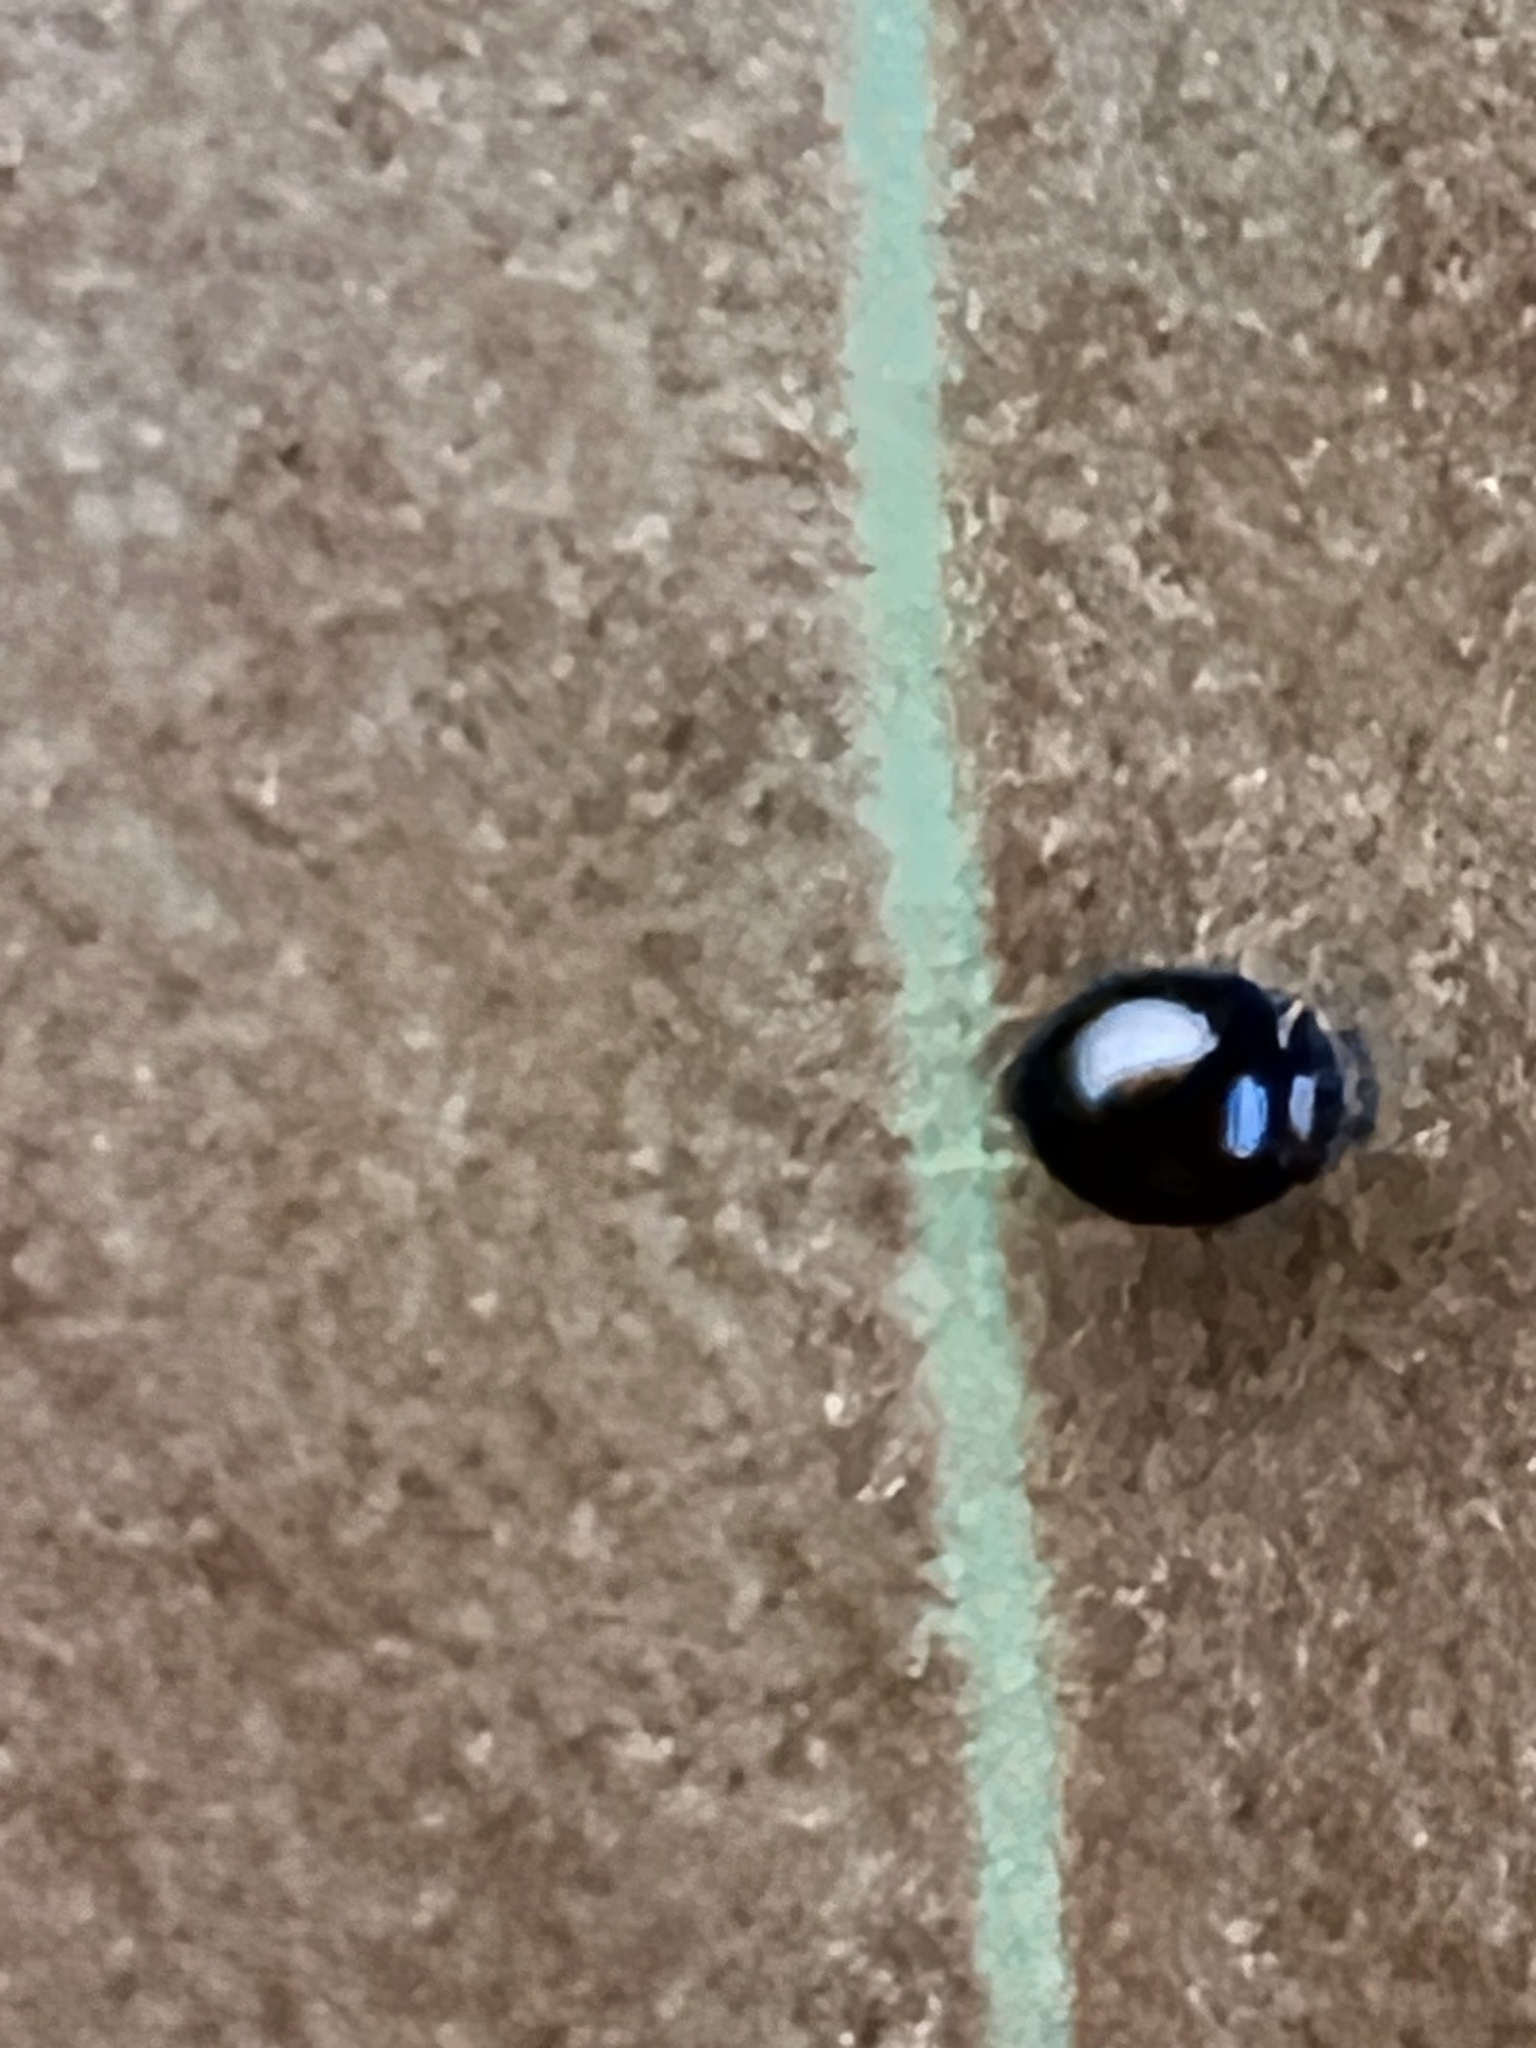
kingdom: Animalia
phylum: Arthropoda
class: Insecta
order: Coleoptera
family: Coccinellidae
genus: Serangium
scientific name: Serangium maculigerum
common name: Lady beetle
